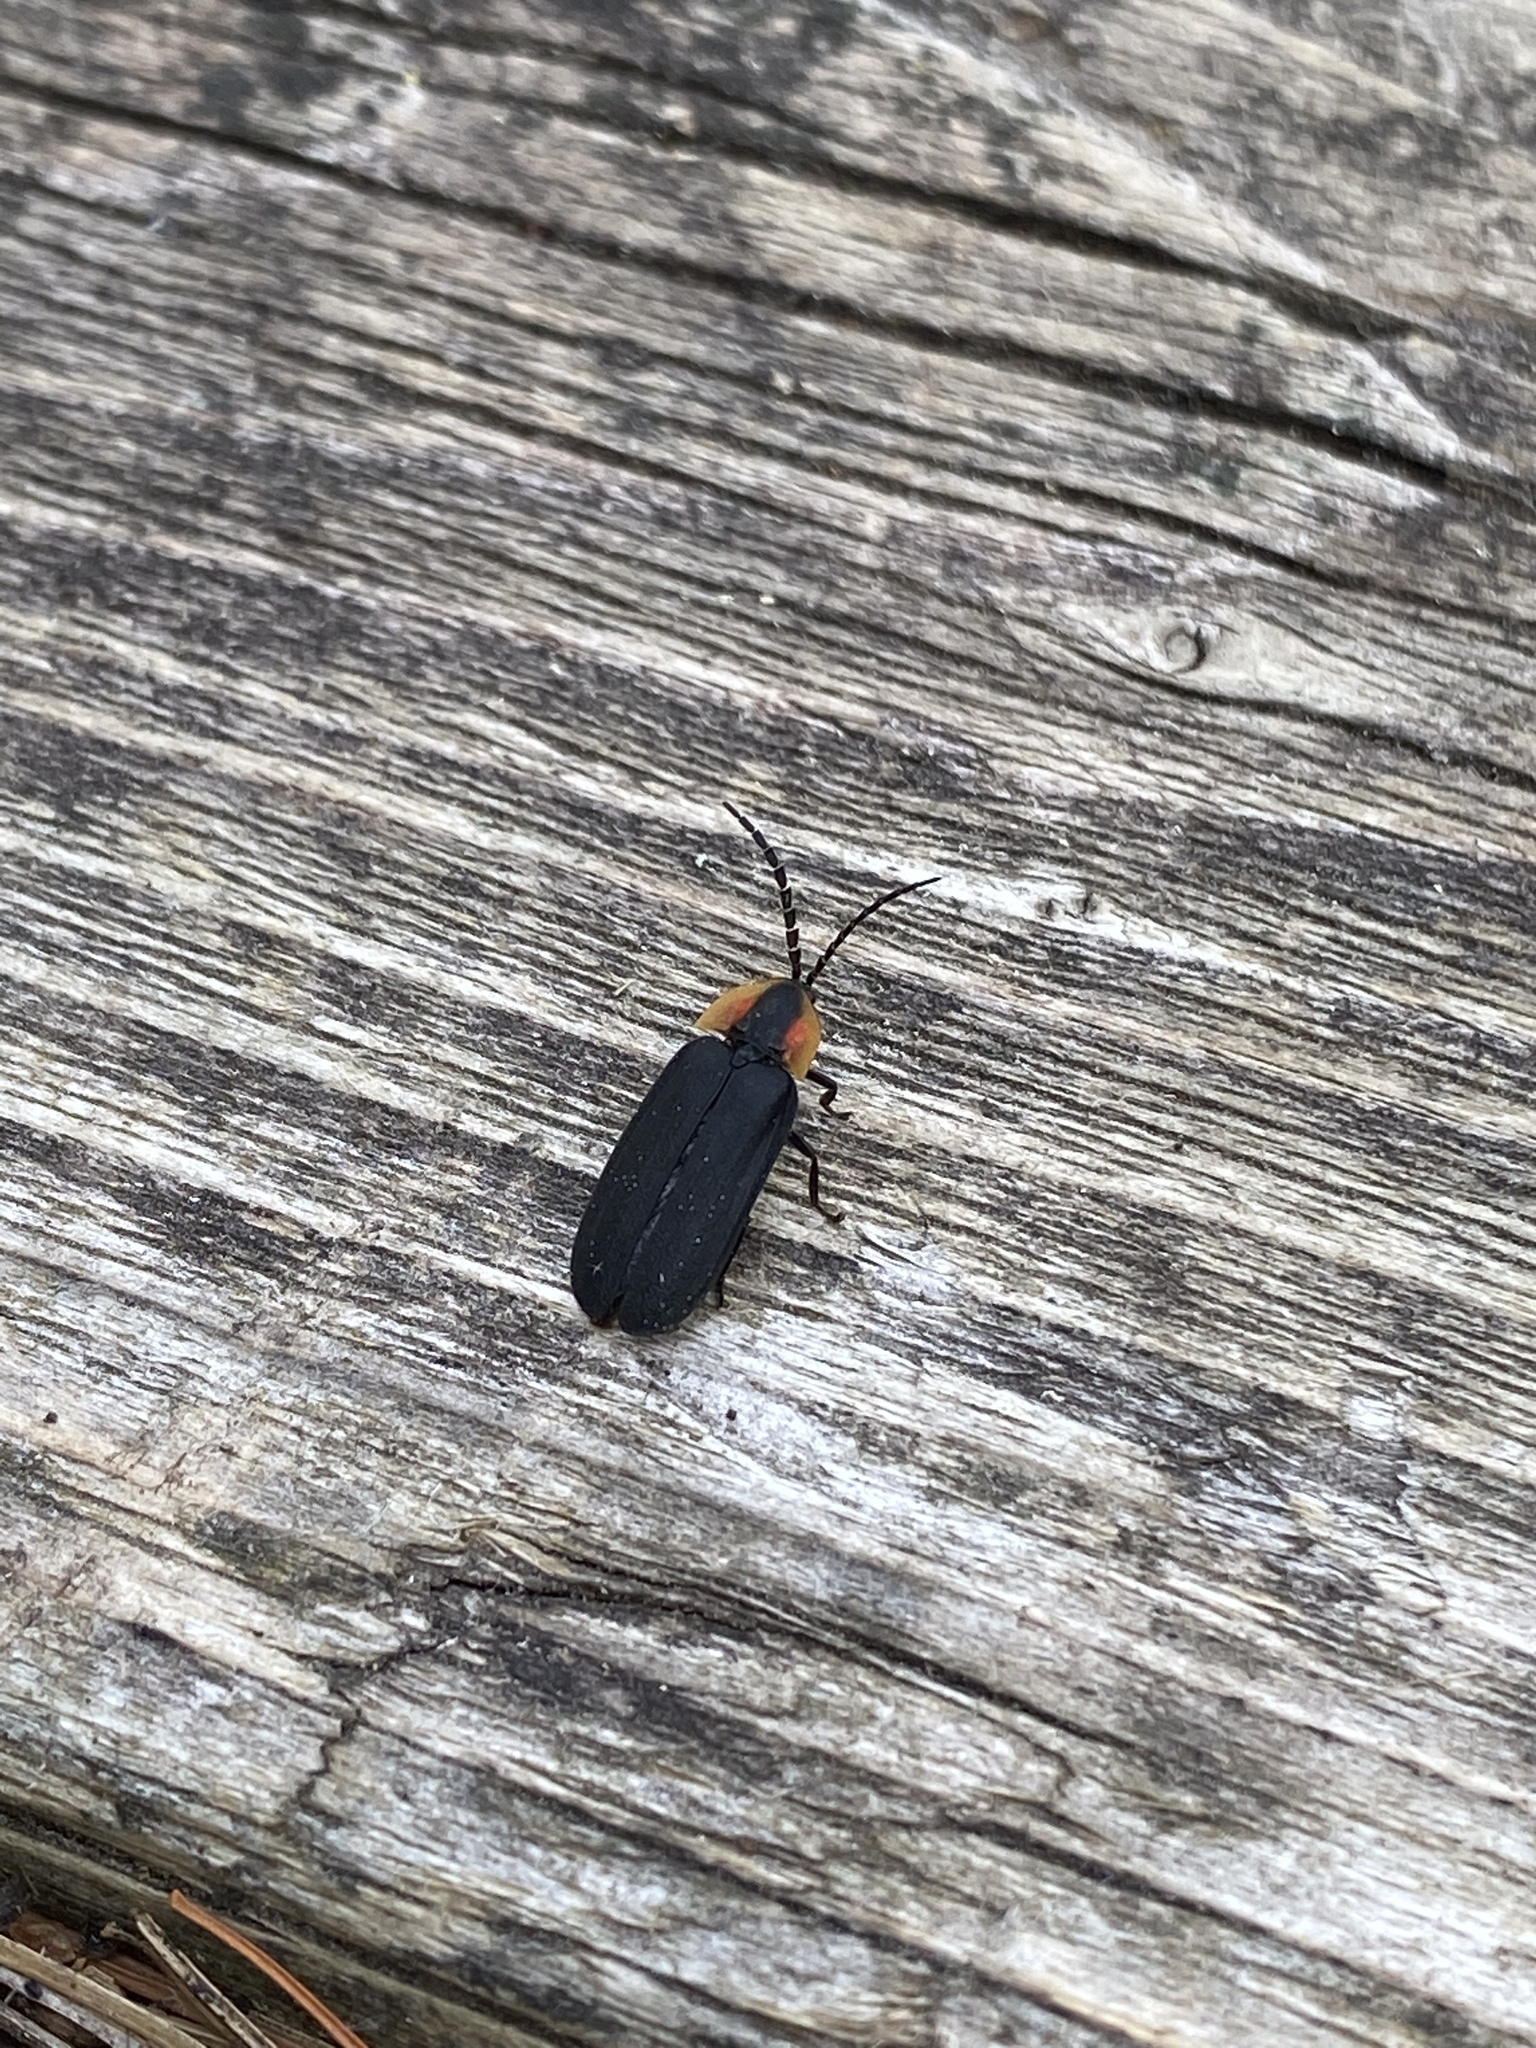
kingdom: Animalia
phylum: Arthropoda
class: Insecta
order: Coleoptera
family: Lampyridae
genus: Lucidota
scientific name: Lucidota atra
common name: Black firefly
